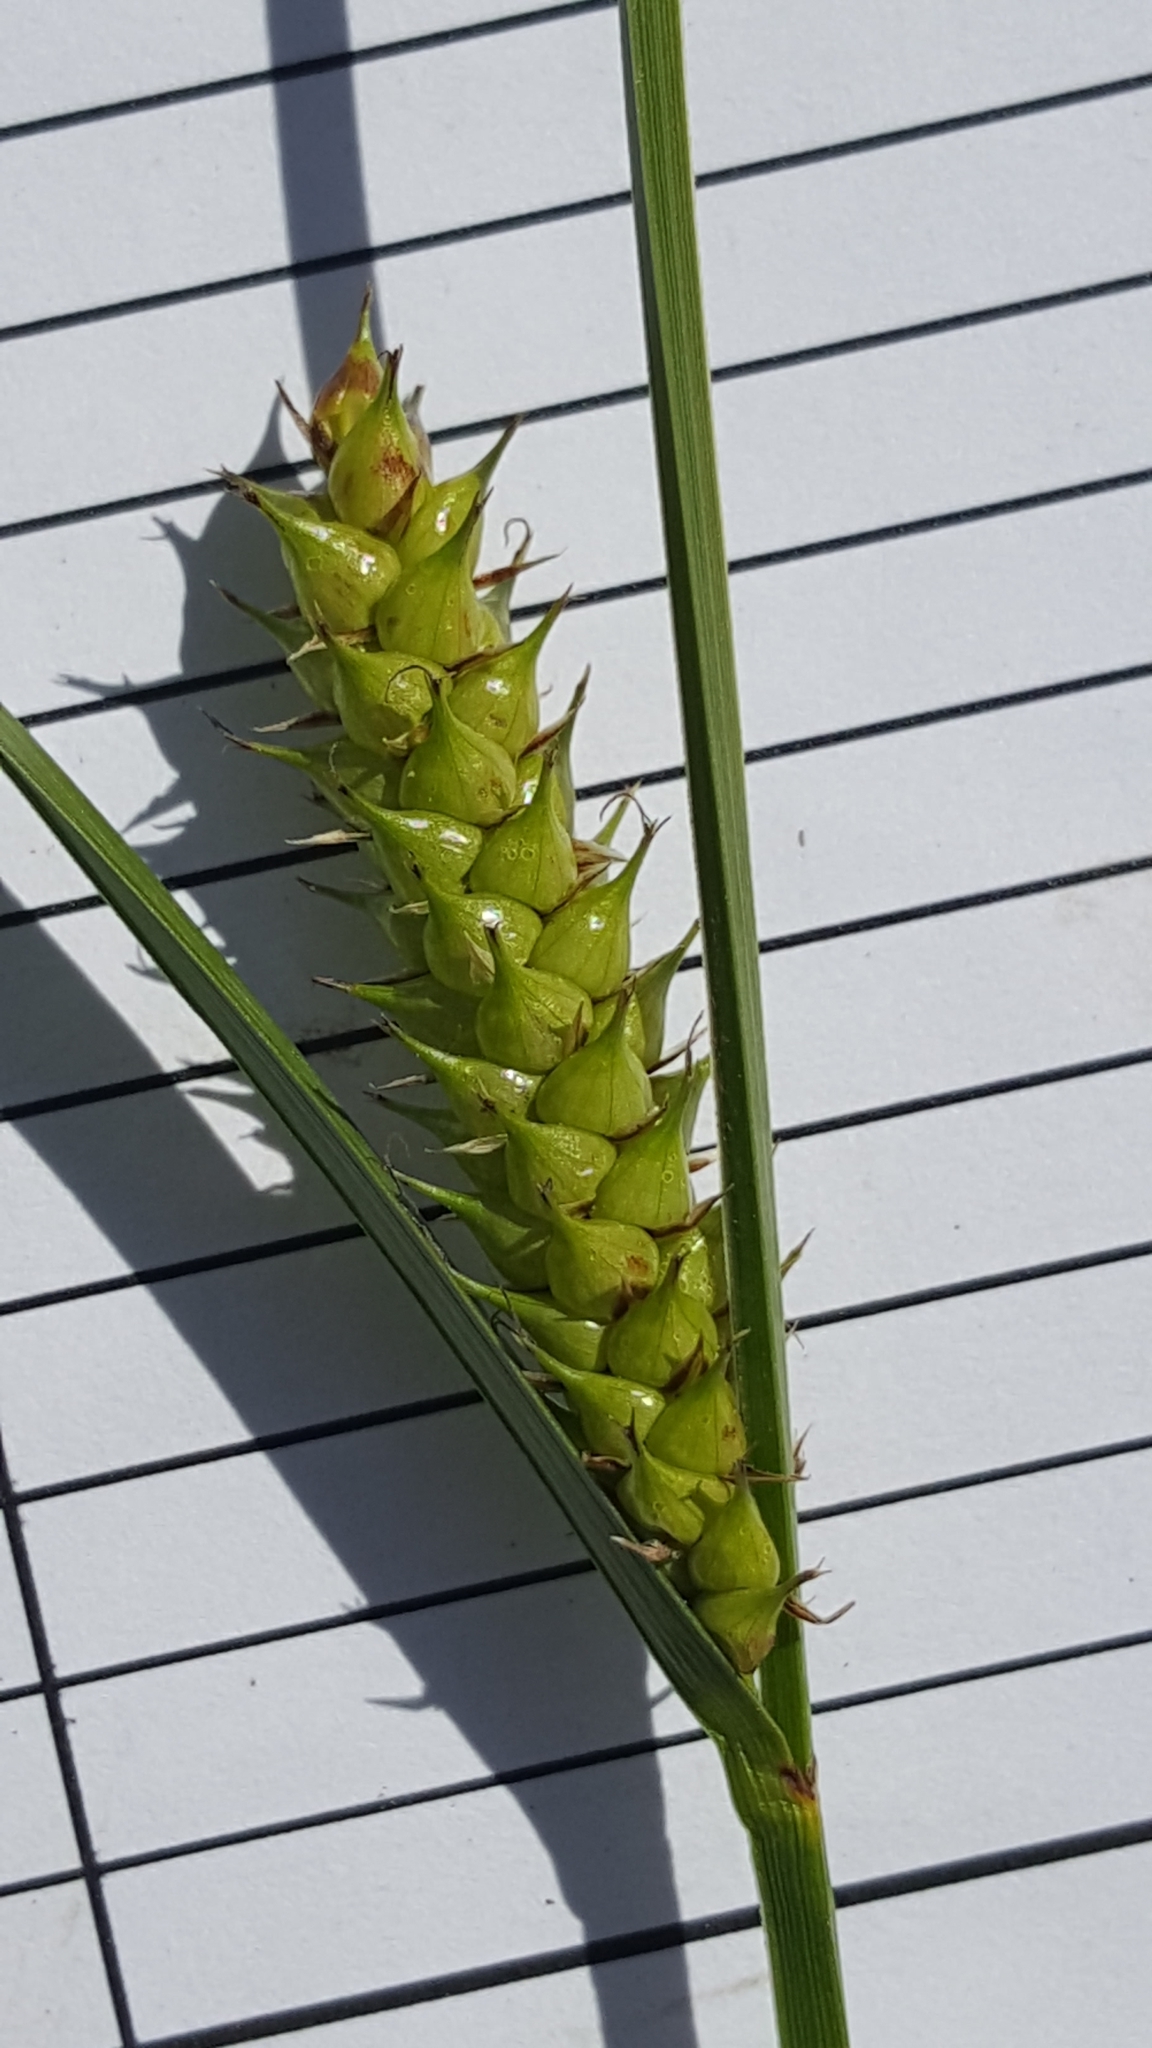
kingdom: Plantae
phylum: Tracheophyta
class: Liliopsida
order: Poales
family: Cyperaceae
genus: Carex
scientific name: Carex vesicaria
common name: Bladder-sedge
